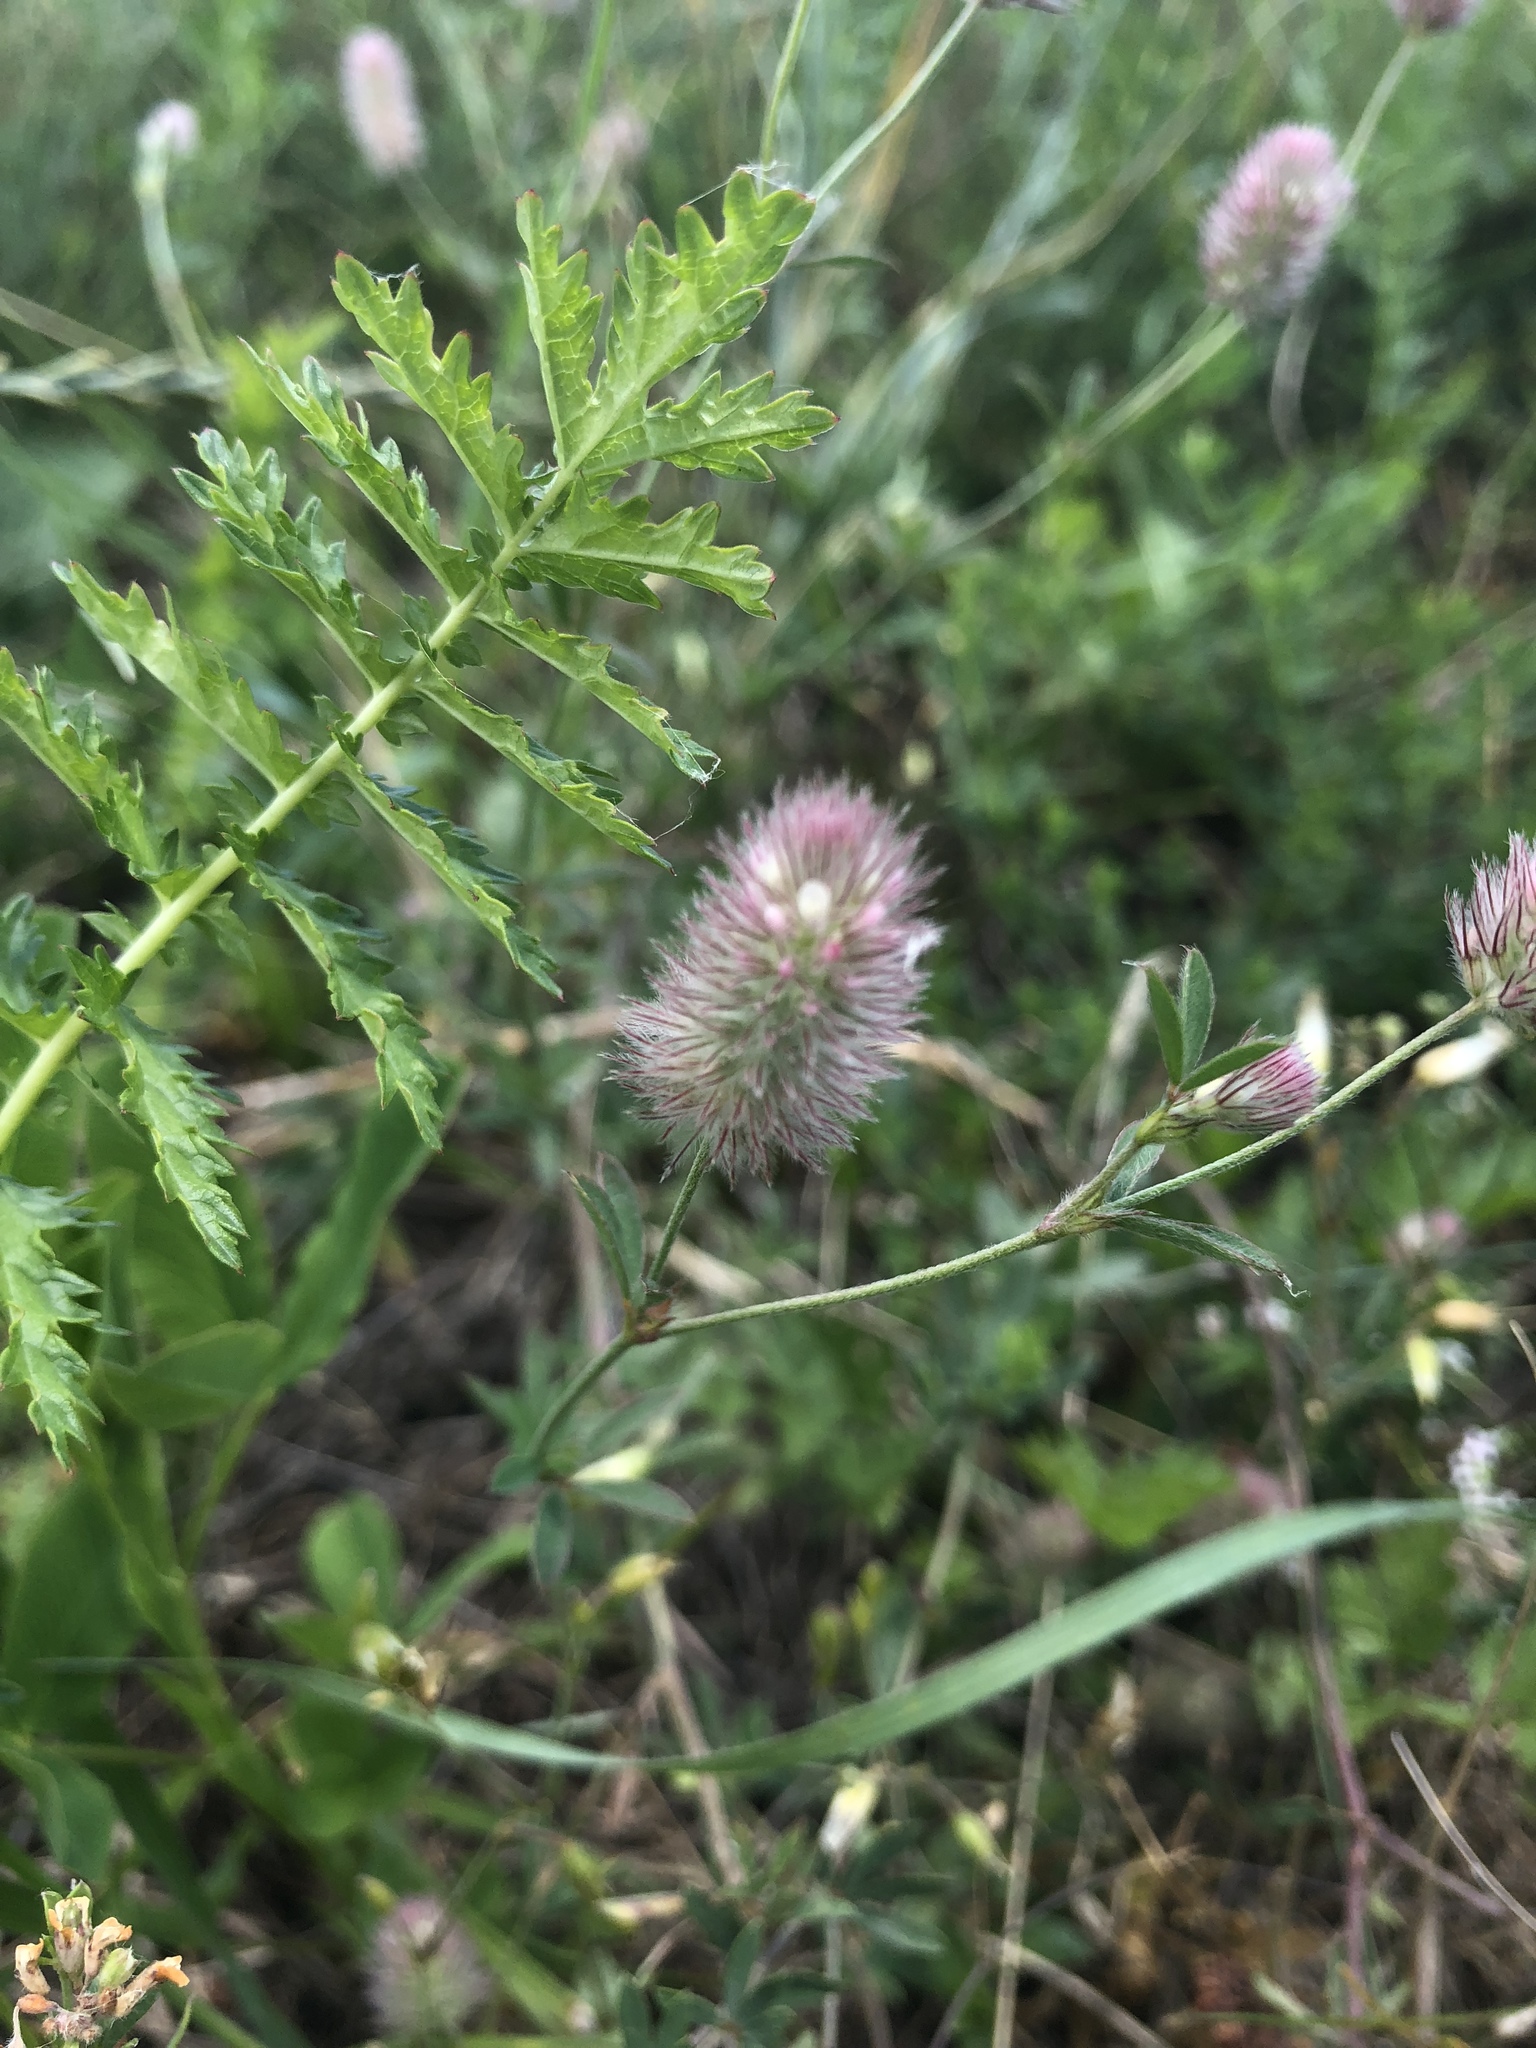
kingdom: Plantae
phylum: Tracheophyta
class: Magnoliopsida
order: Fabales
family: Fabaceae
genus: Trifolium
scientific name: Trifolium arvense
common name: Hare's-foot clover
